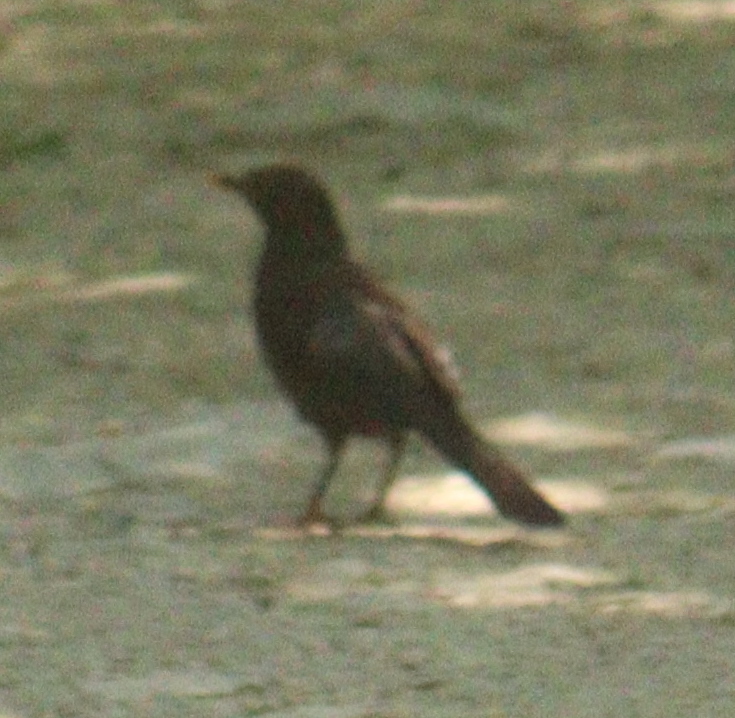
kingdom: Animalia
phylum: Chordata
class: Aves
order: Passeriformes
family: Turdidae
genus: Turdus
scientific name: Turdus merula
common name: Common blackbird
